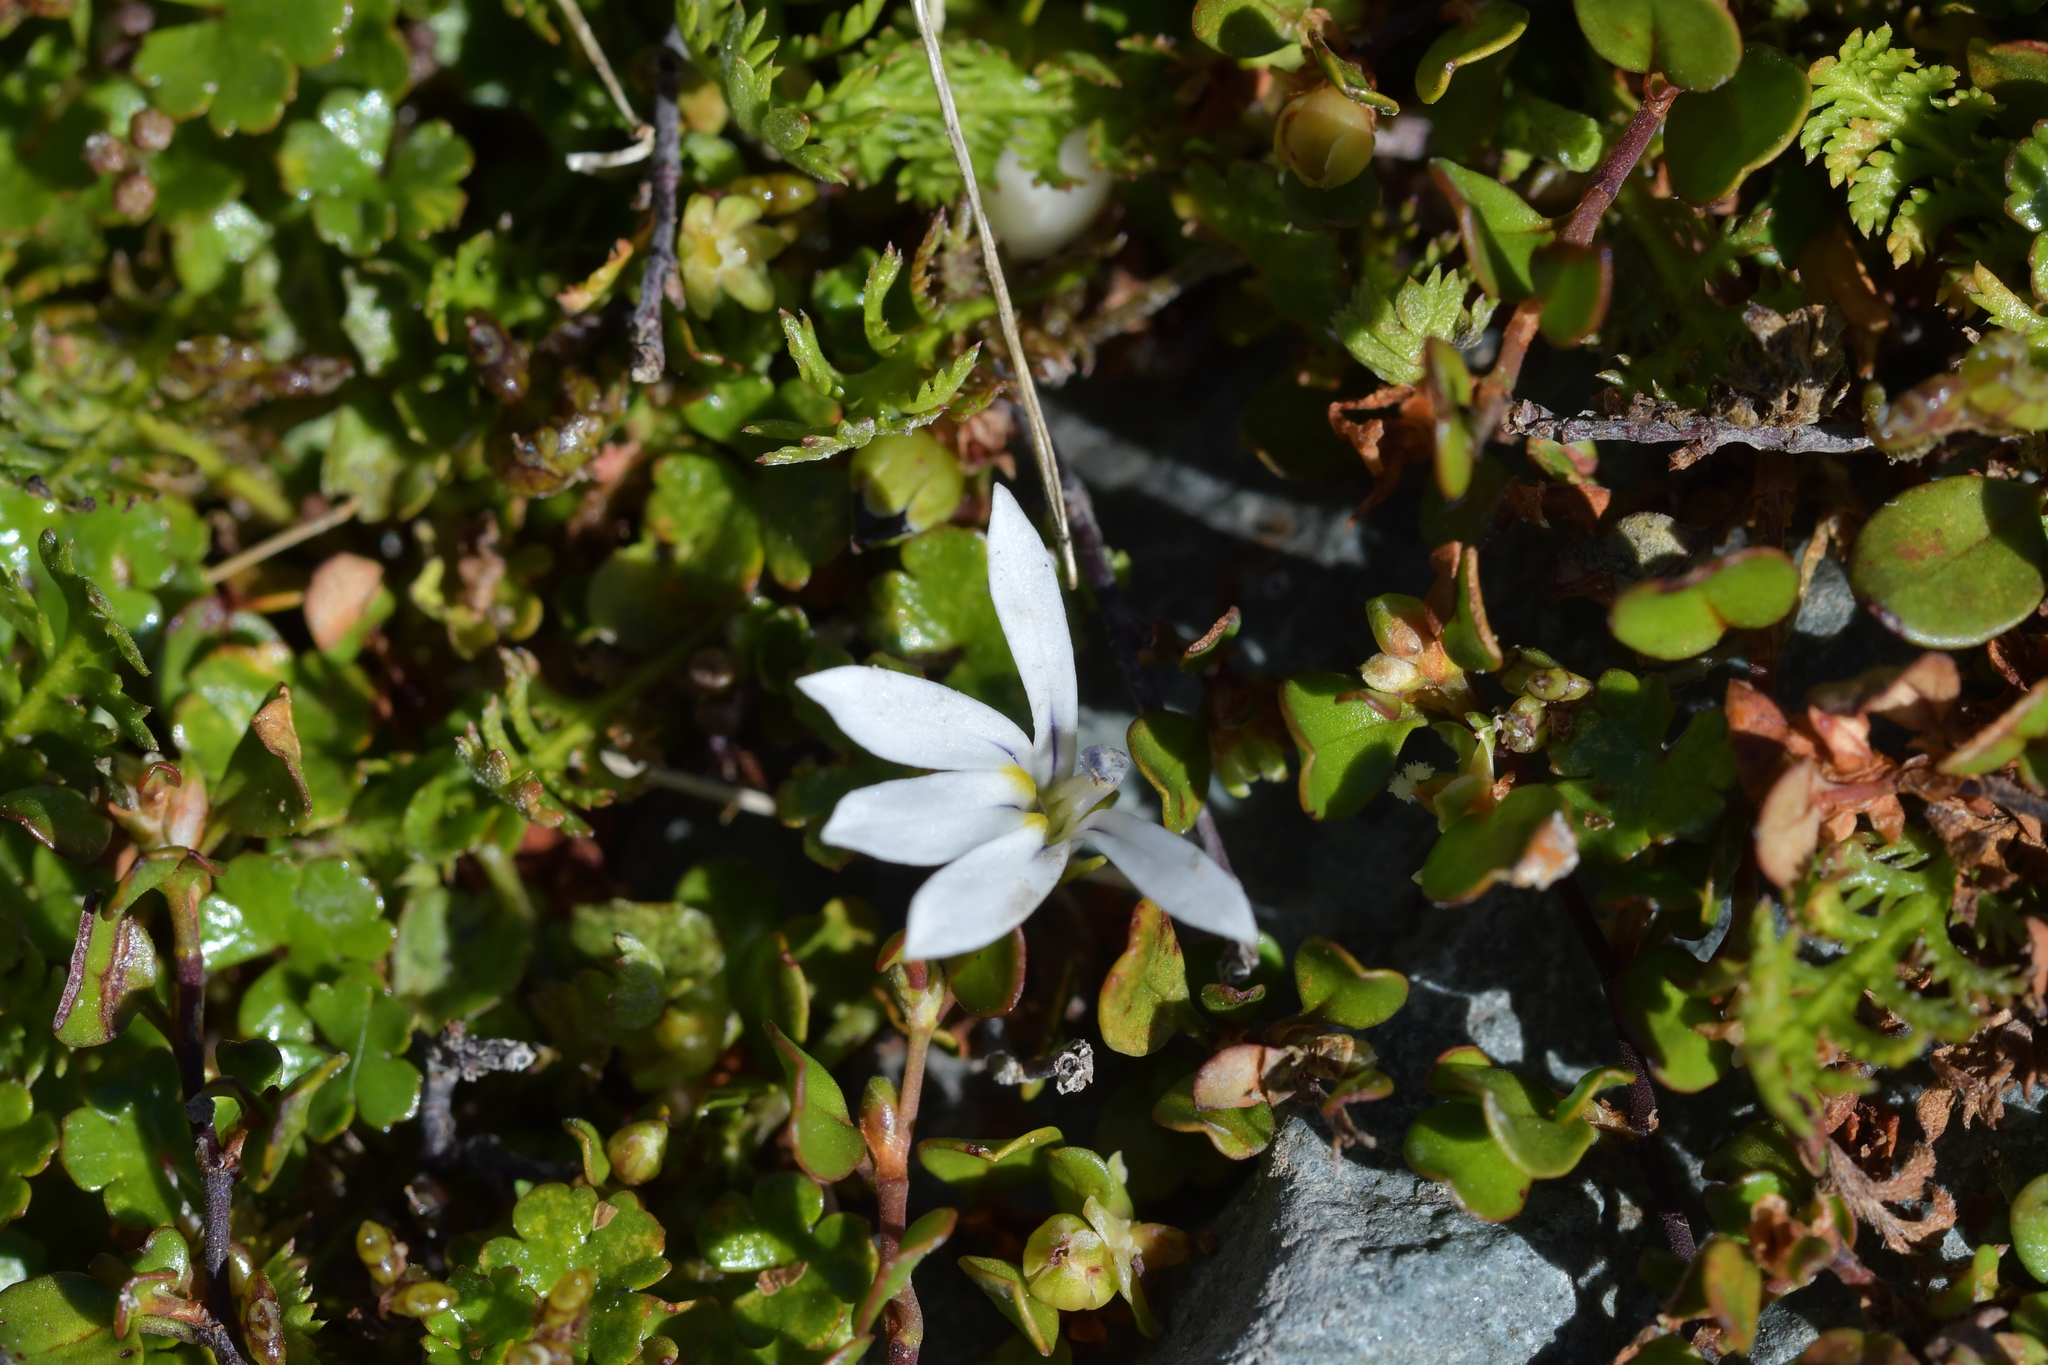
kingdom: Plantae
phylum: Tracheophyta
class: Magnoliopsida
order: Asterales
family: Campanulaceae
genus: Lobelia
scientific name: Lobelia angulata
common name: Lawn lobelia
